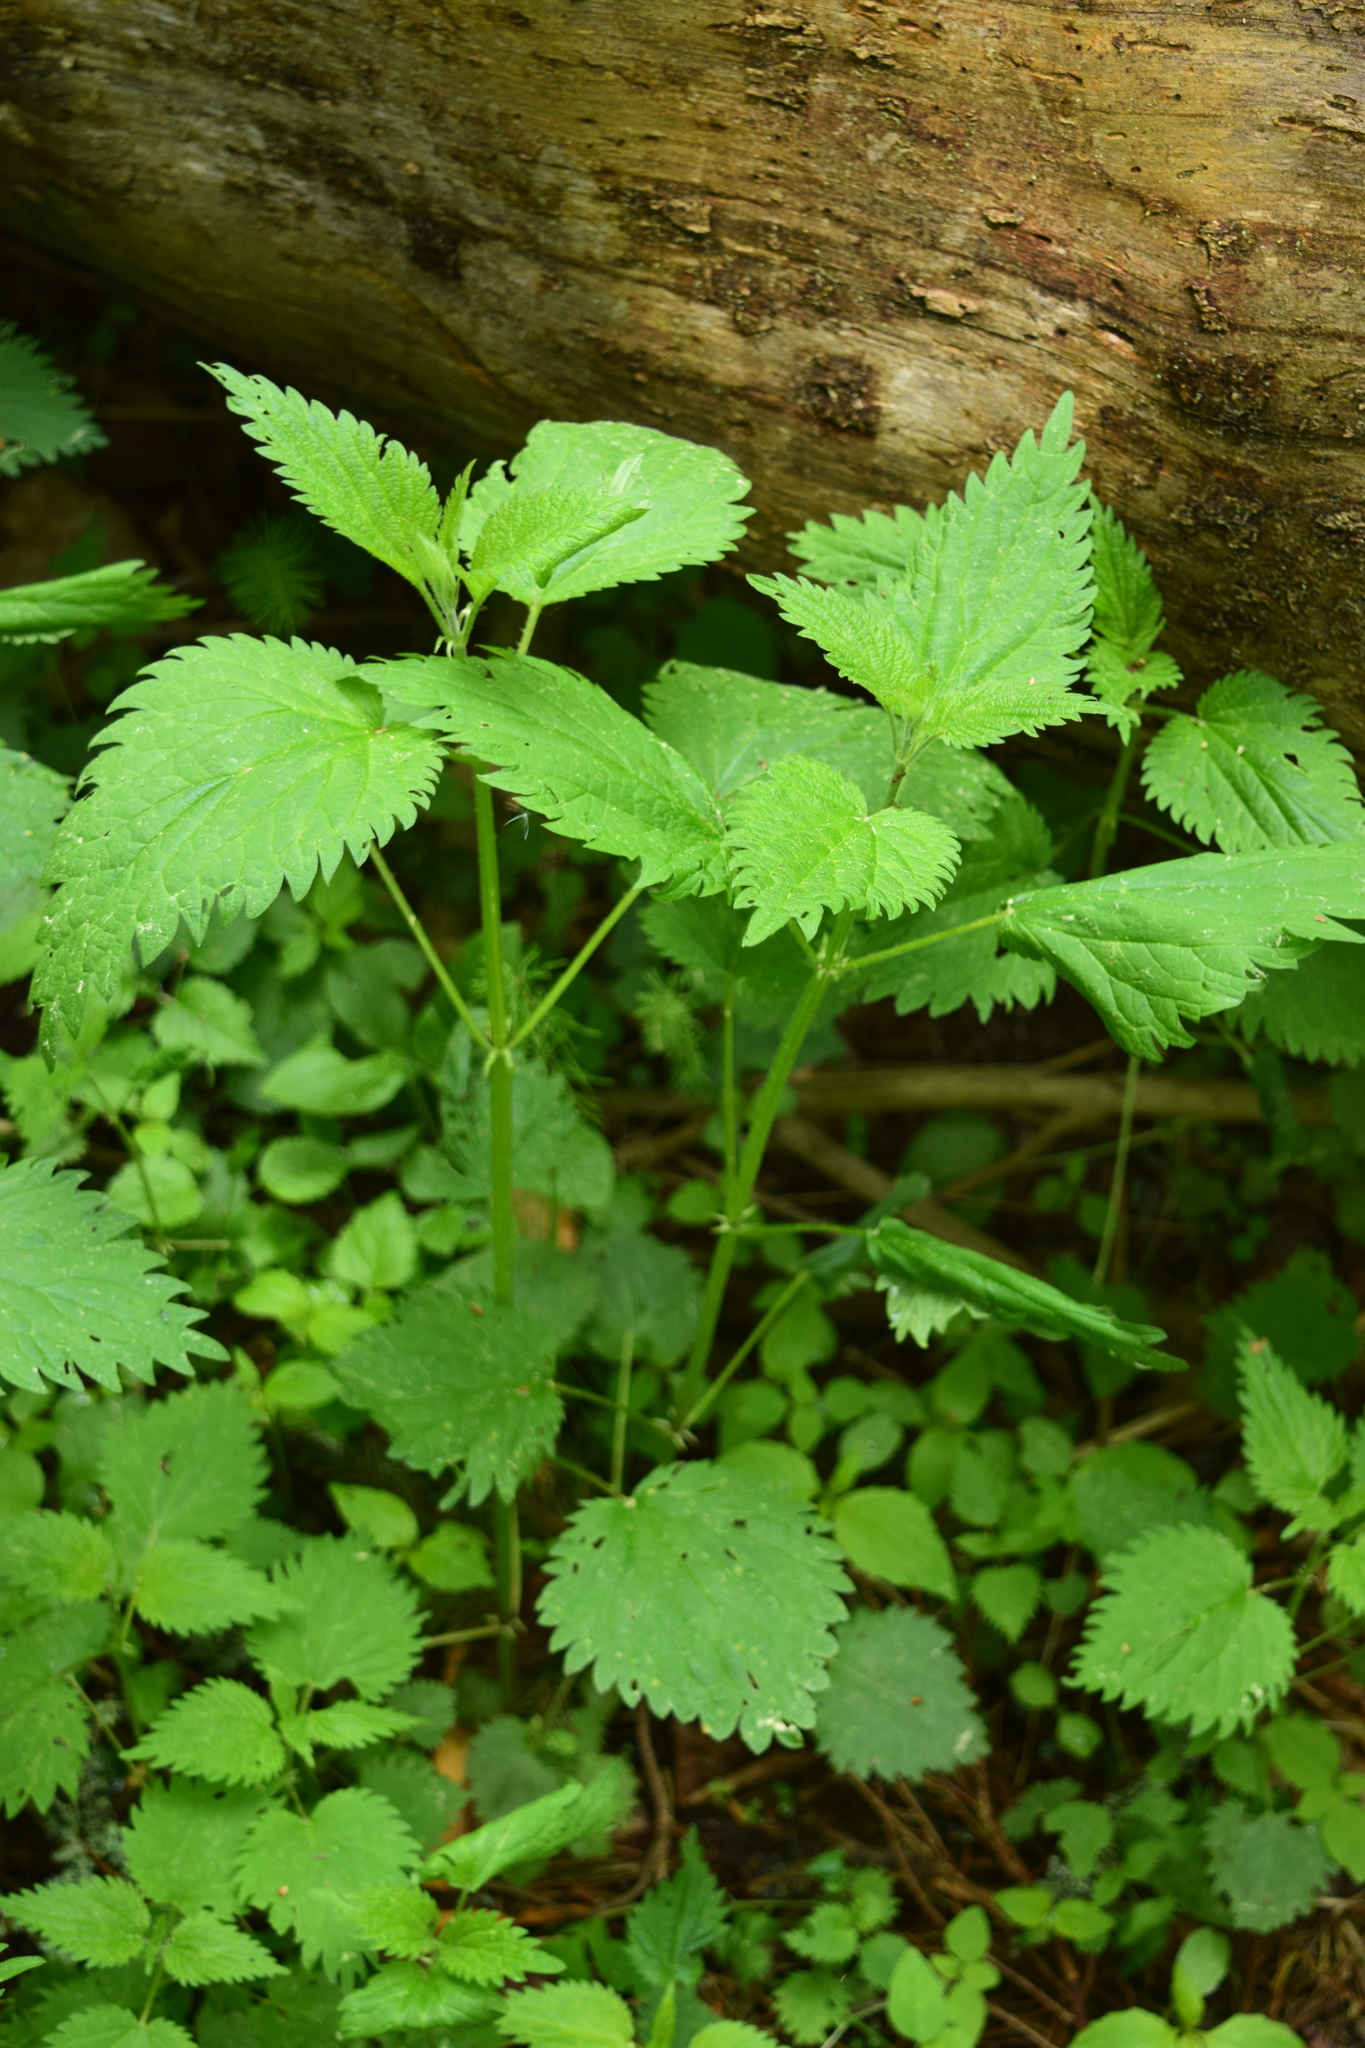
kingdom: Plantae
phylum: Tracheophyta
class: Magnoliopsida
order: Rosales
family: Urticaceae
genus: Urtica
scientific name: Urtica dioica
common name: Common nettle
